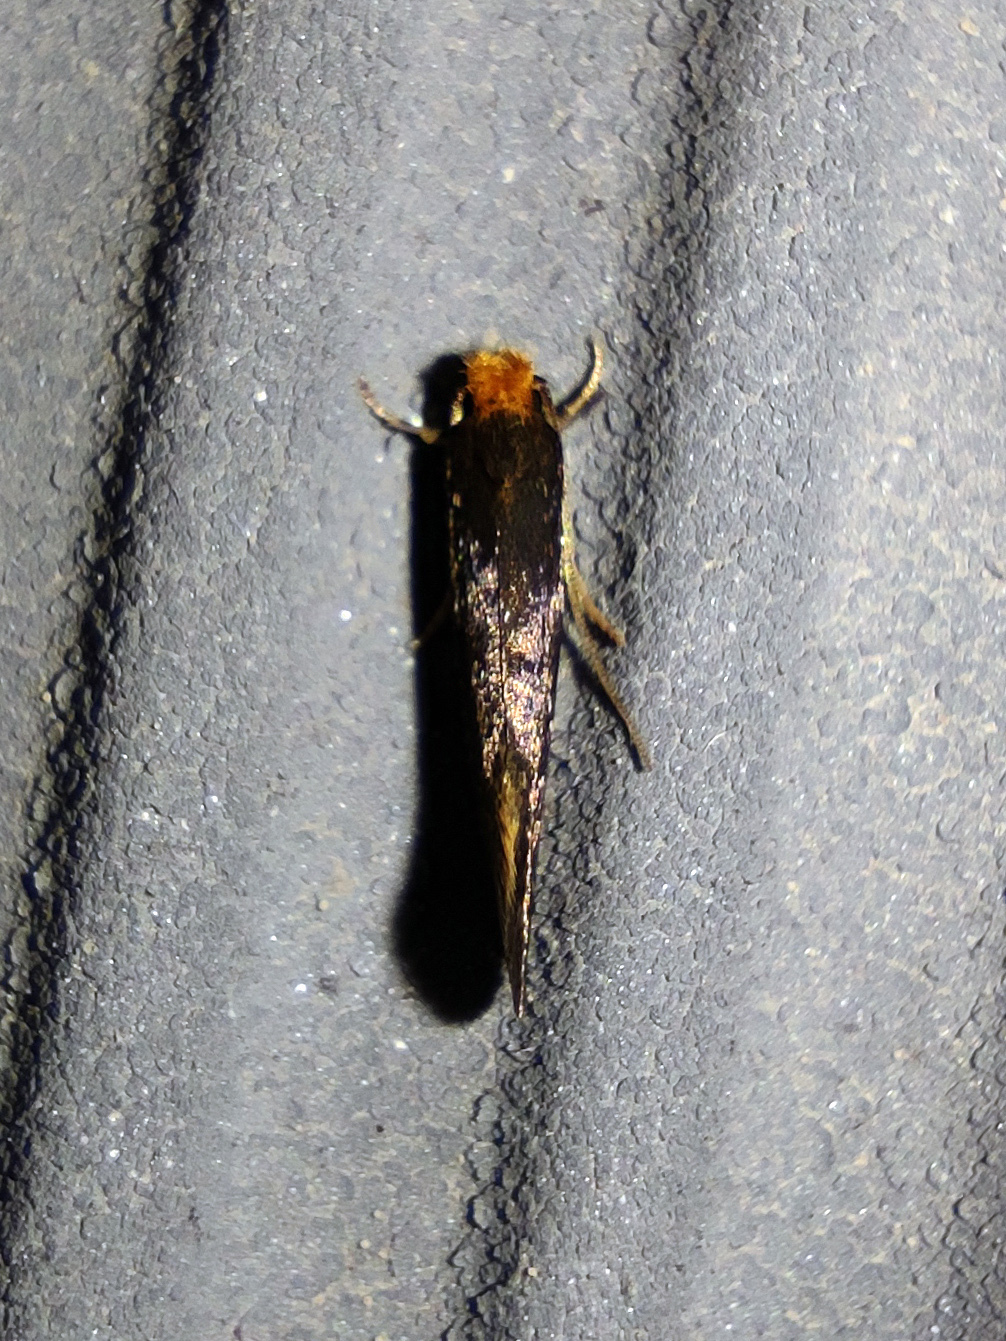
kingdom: Animalia
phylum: Arthropoda
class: Insecta
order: Lepidoptera
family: Tineidae
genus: Monopis
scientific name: Monopis imella
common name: Felt clothes
